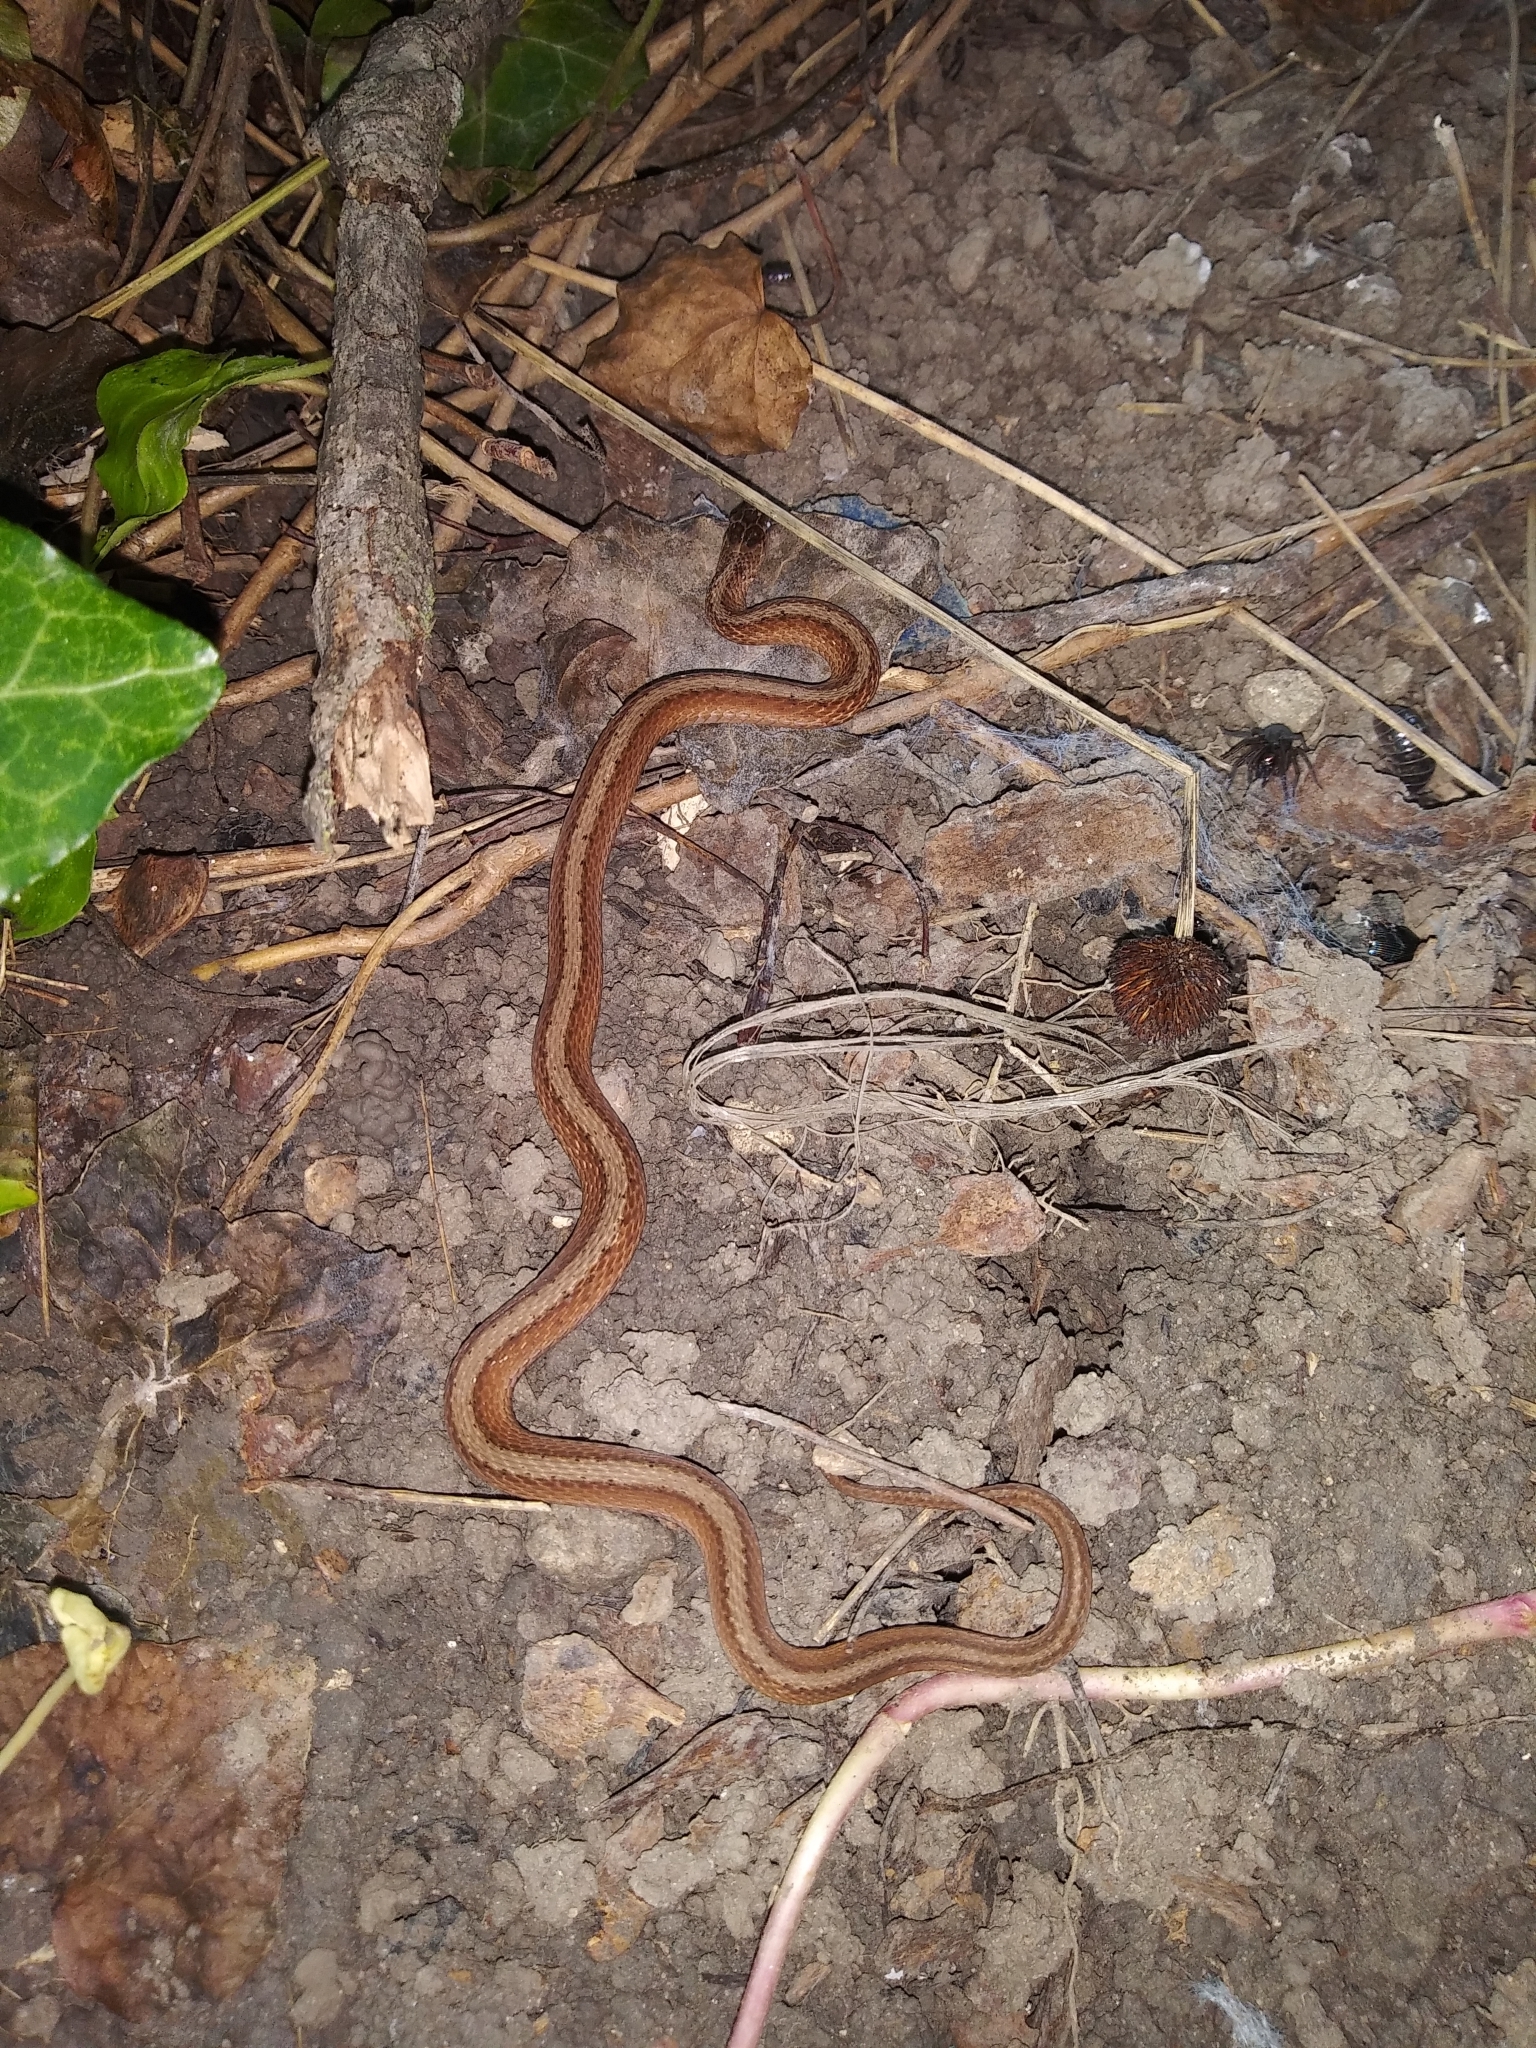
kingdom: Animalia
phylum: Chordata
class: Squamata
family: Colubridae
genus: Storeria
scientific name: Storeria dekayi
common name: (dekay’s) brown snake
